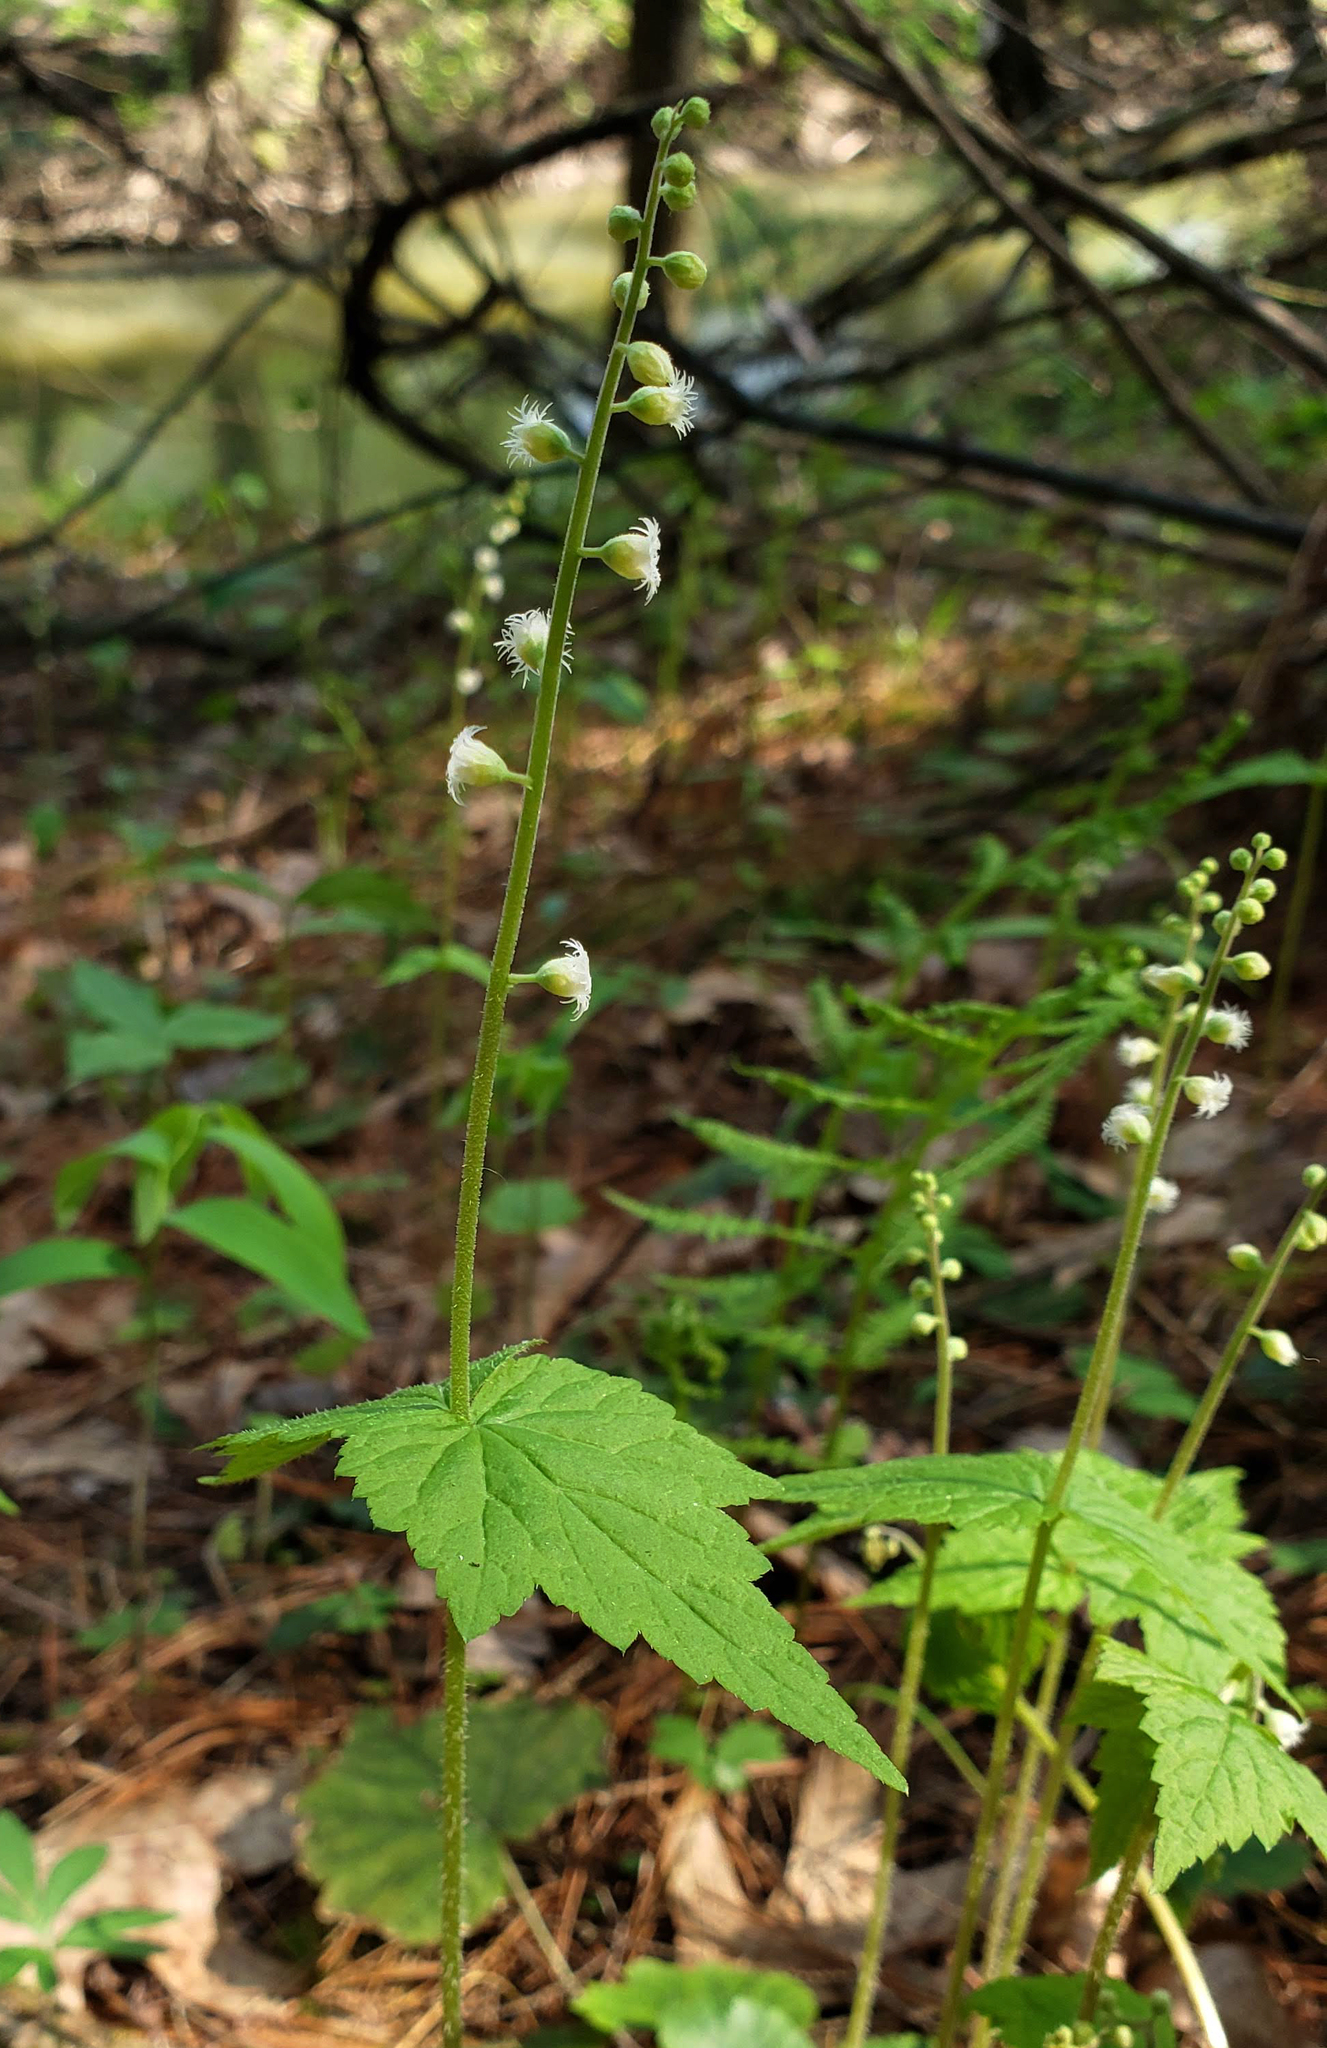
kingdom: Plantae
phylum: Tracheophyta
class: Magnoliopsida
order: Saxifragales
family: Saxifragaceae
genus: Mitella
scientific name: Mitella diphylla
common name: Coolwort
